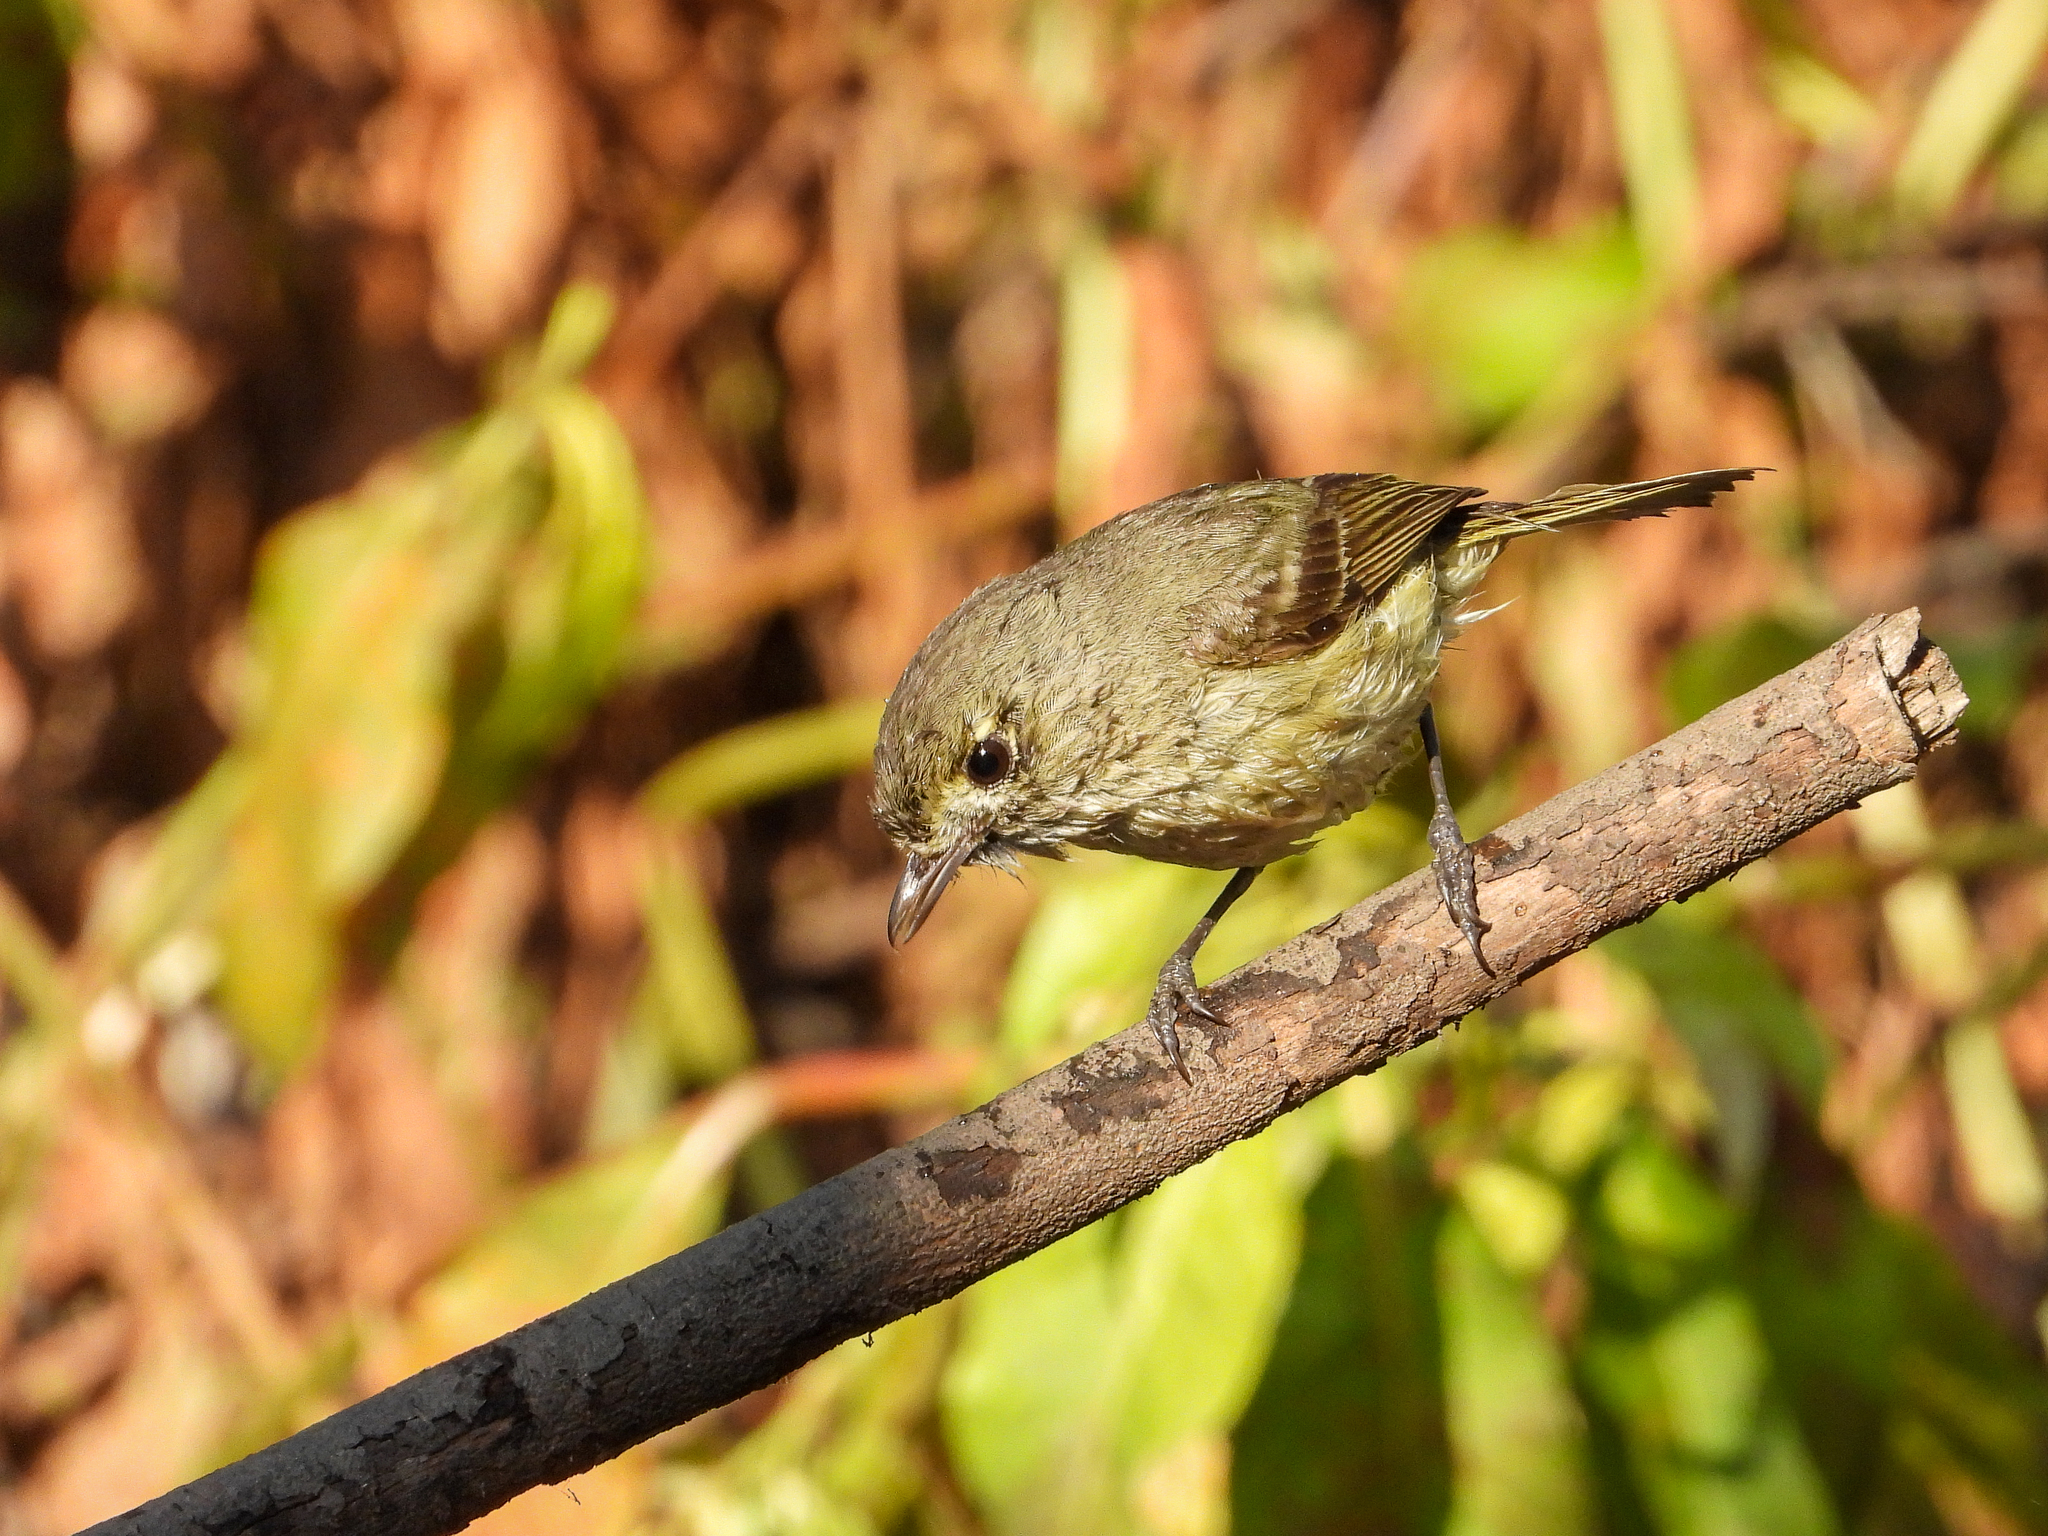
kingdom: Animalia
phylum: Chordata
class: Aves
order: Passeriformes
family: Vireonidae
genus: Vireo
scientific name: Vireo huttoni
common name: Hutton's vireo
